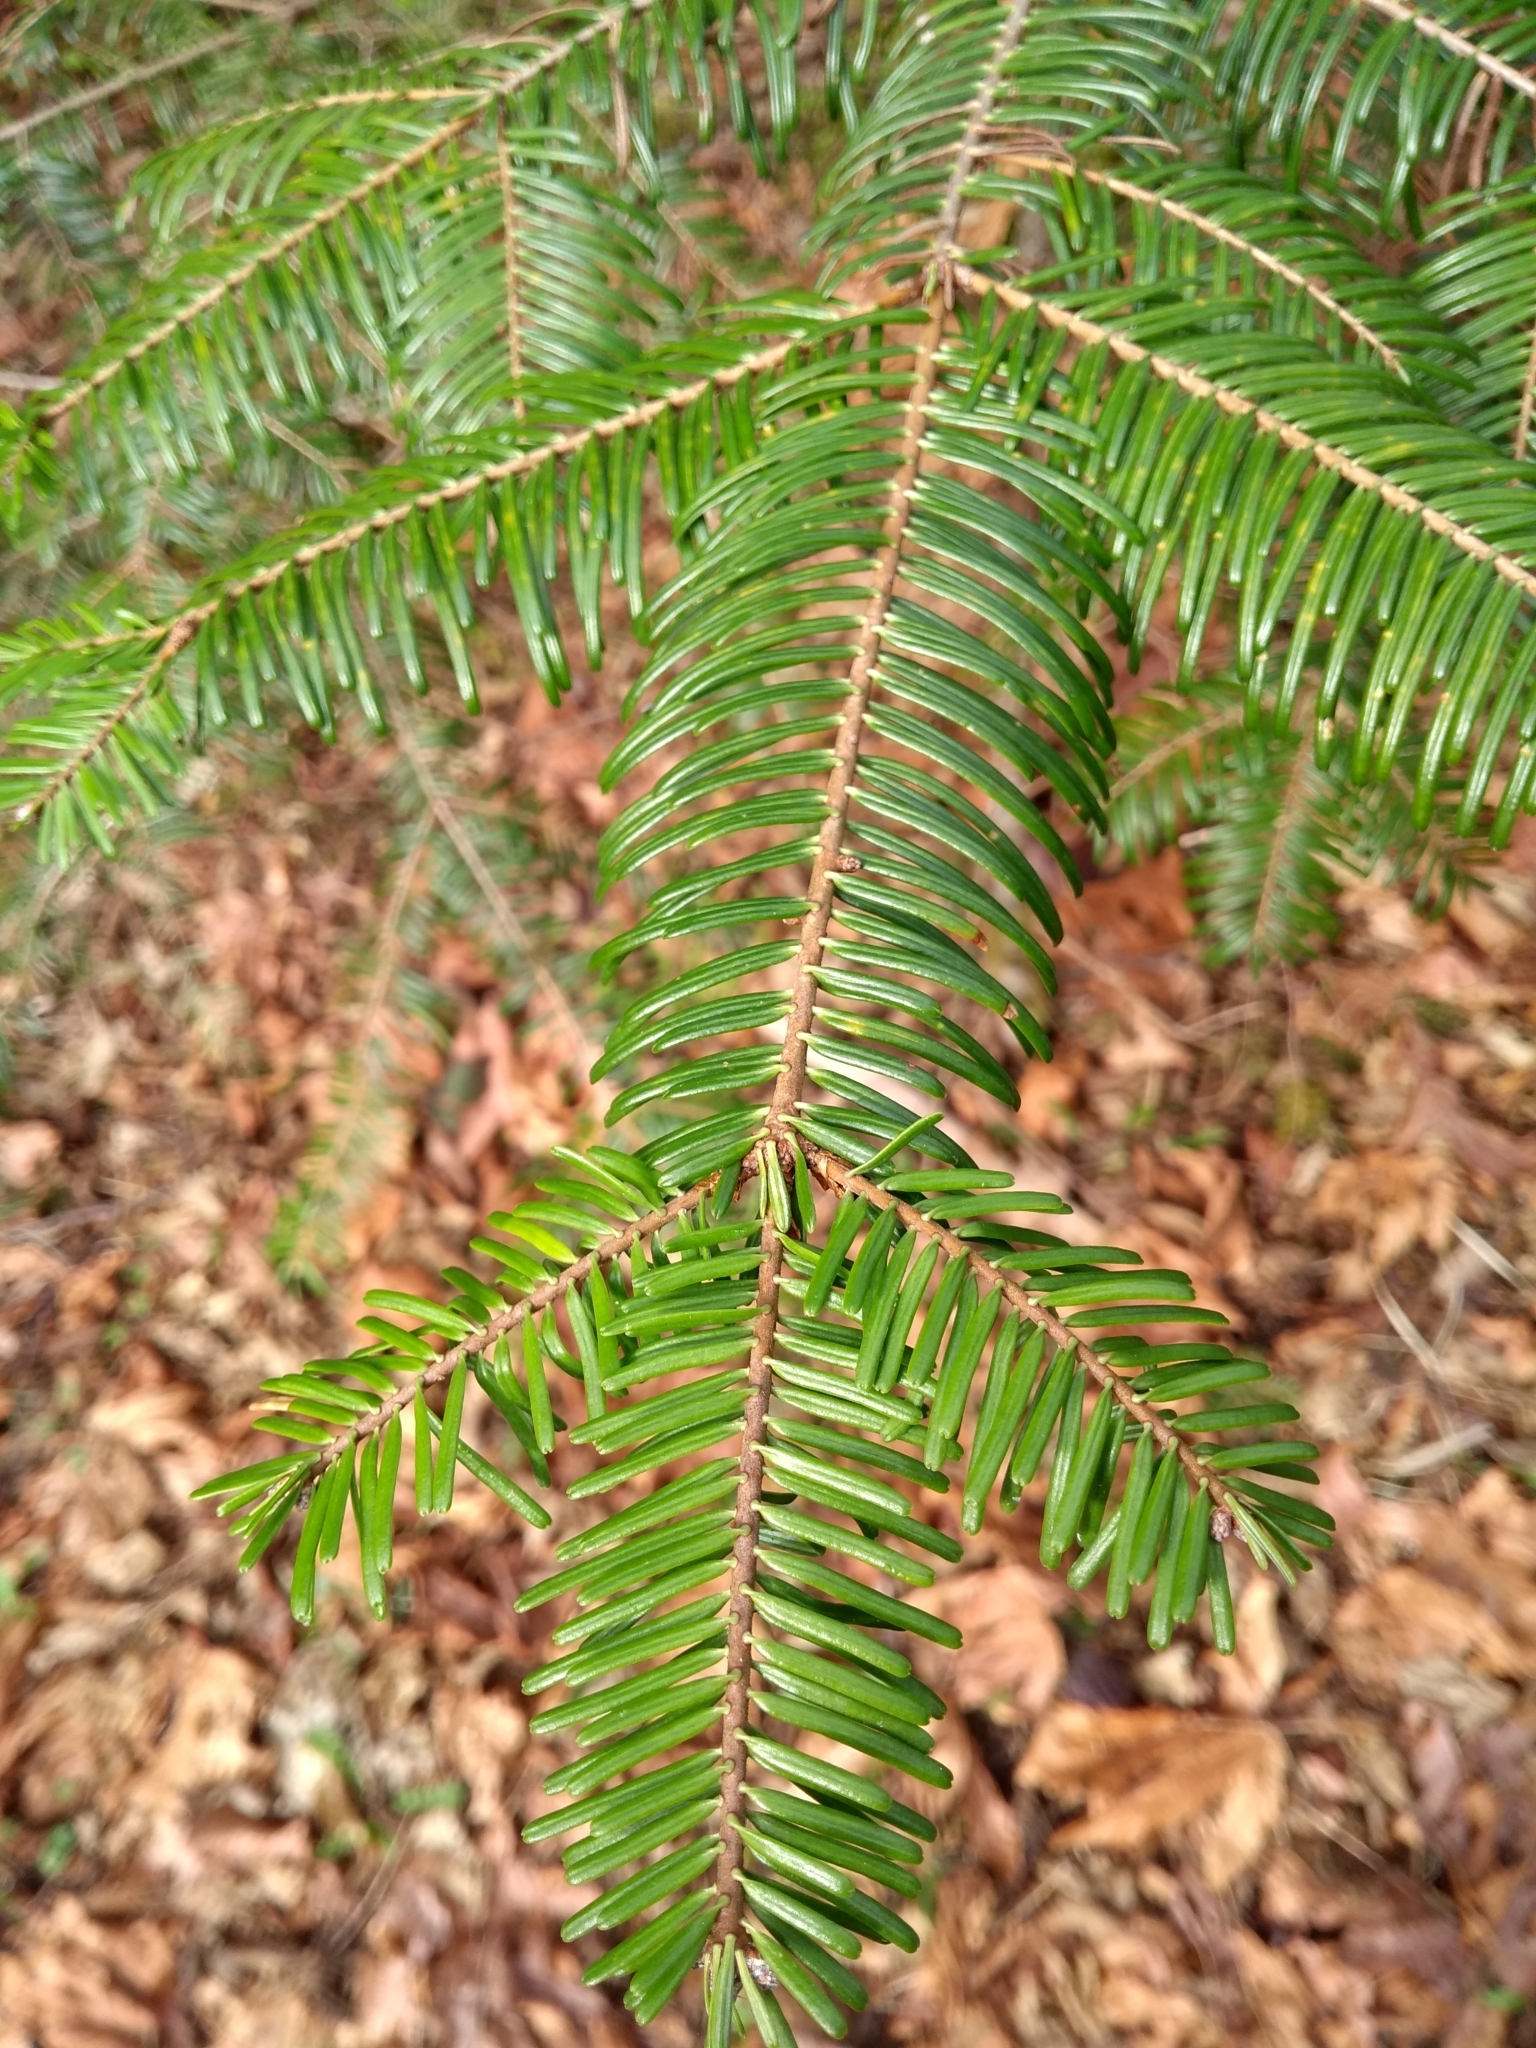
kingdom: Plantae
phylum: Tracheophyta
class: Pinopsida
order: Pinales
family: Pinaceae
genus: Abies
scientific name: Abies grandis
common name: Giant fir
